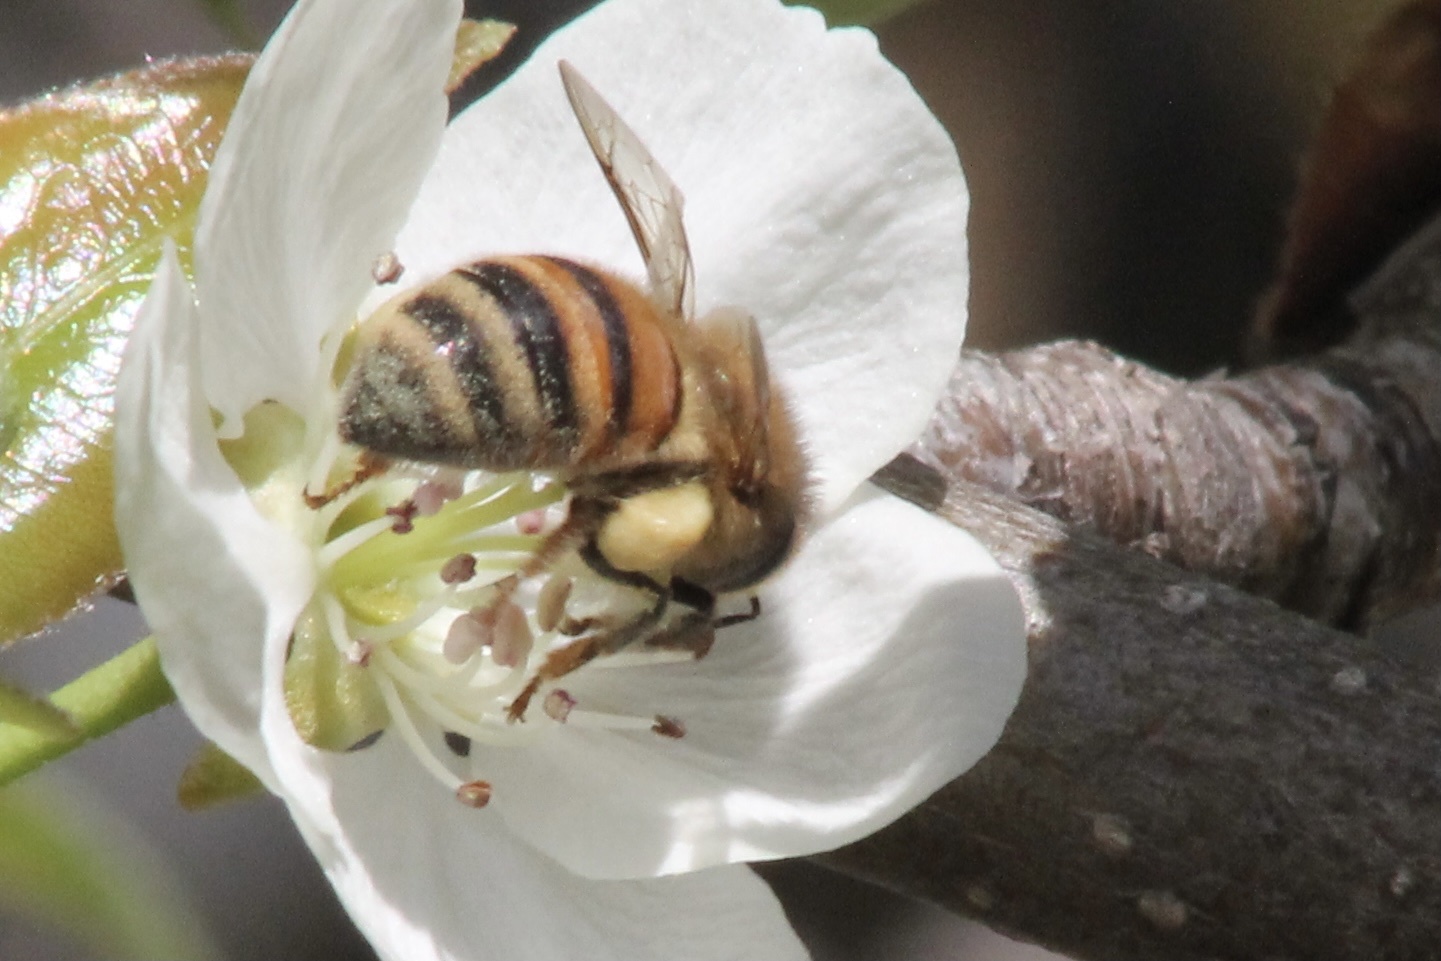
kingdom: Animalia
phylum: Arthropoda
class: Insecta
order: Hymenoptera
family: Apidae
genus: Apis
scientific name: Apis mellifera
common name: Honey bee
